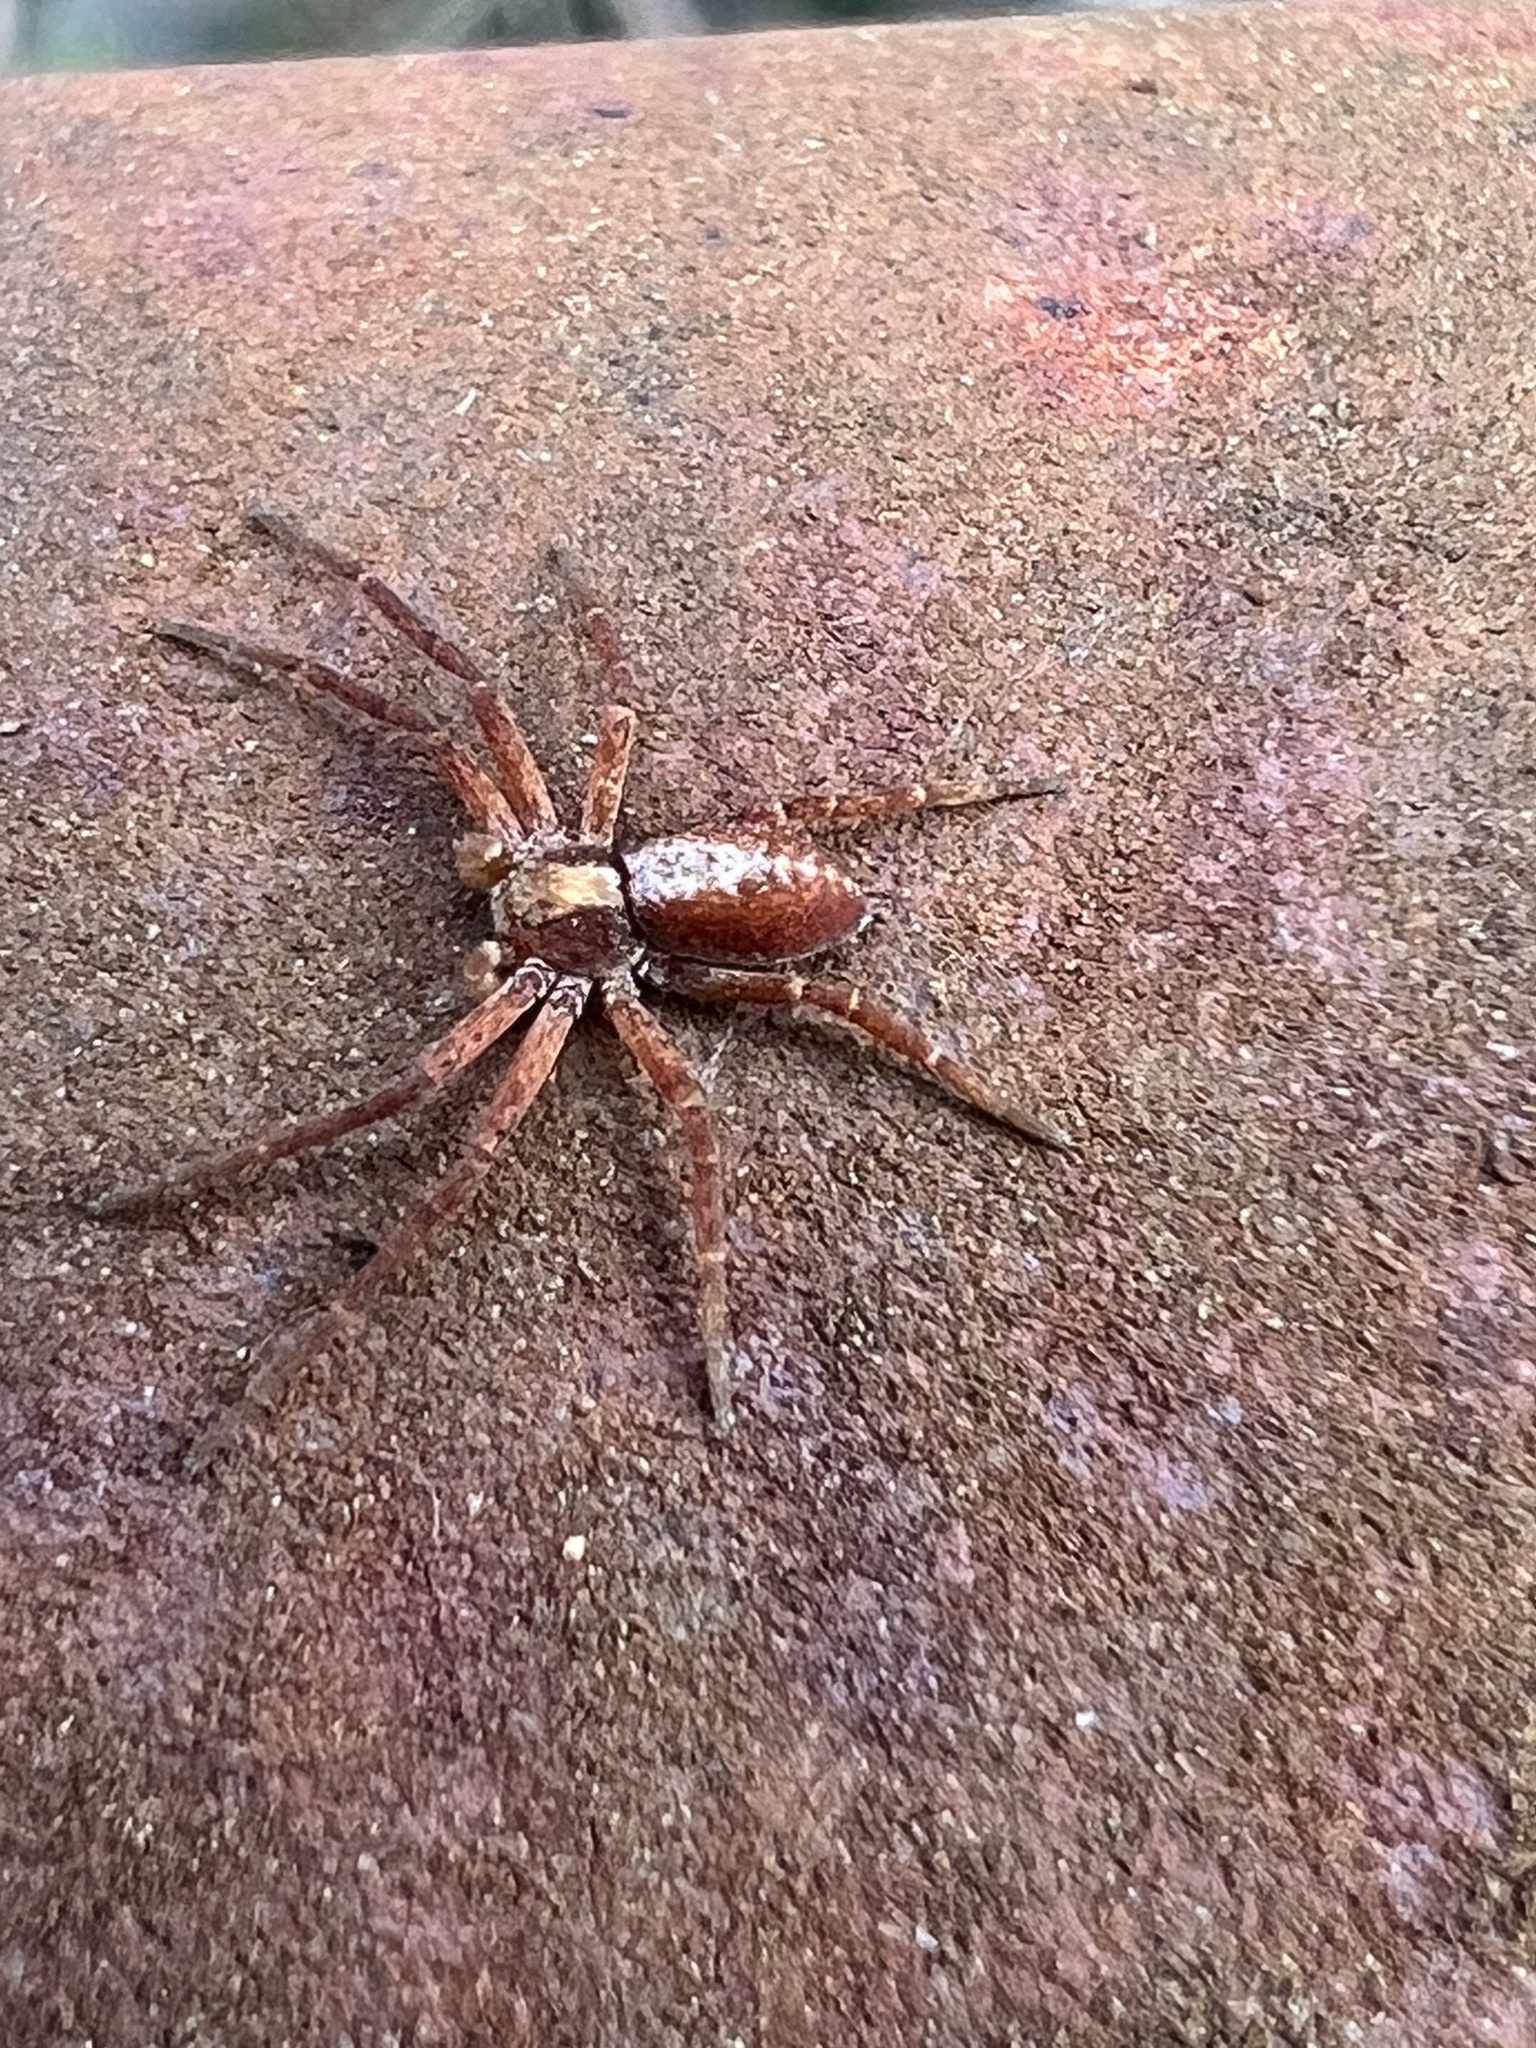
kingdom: Animalia
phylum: Arthropoda
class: Arachnida
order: Araneae
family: Philodromidae
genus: Philodromus
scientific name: Philodromus rufus
